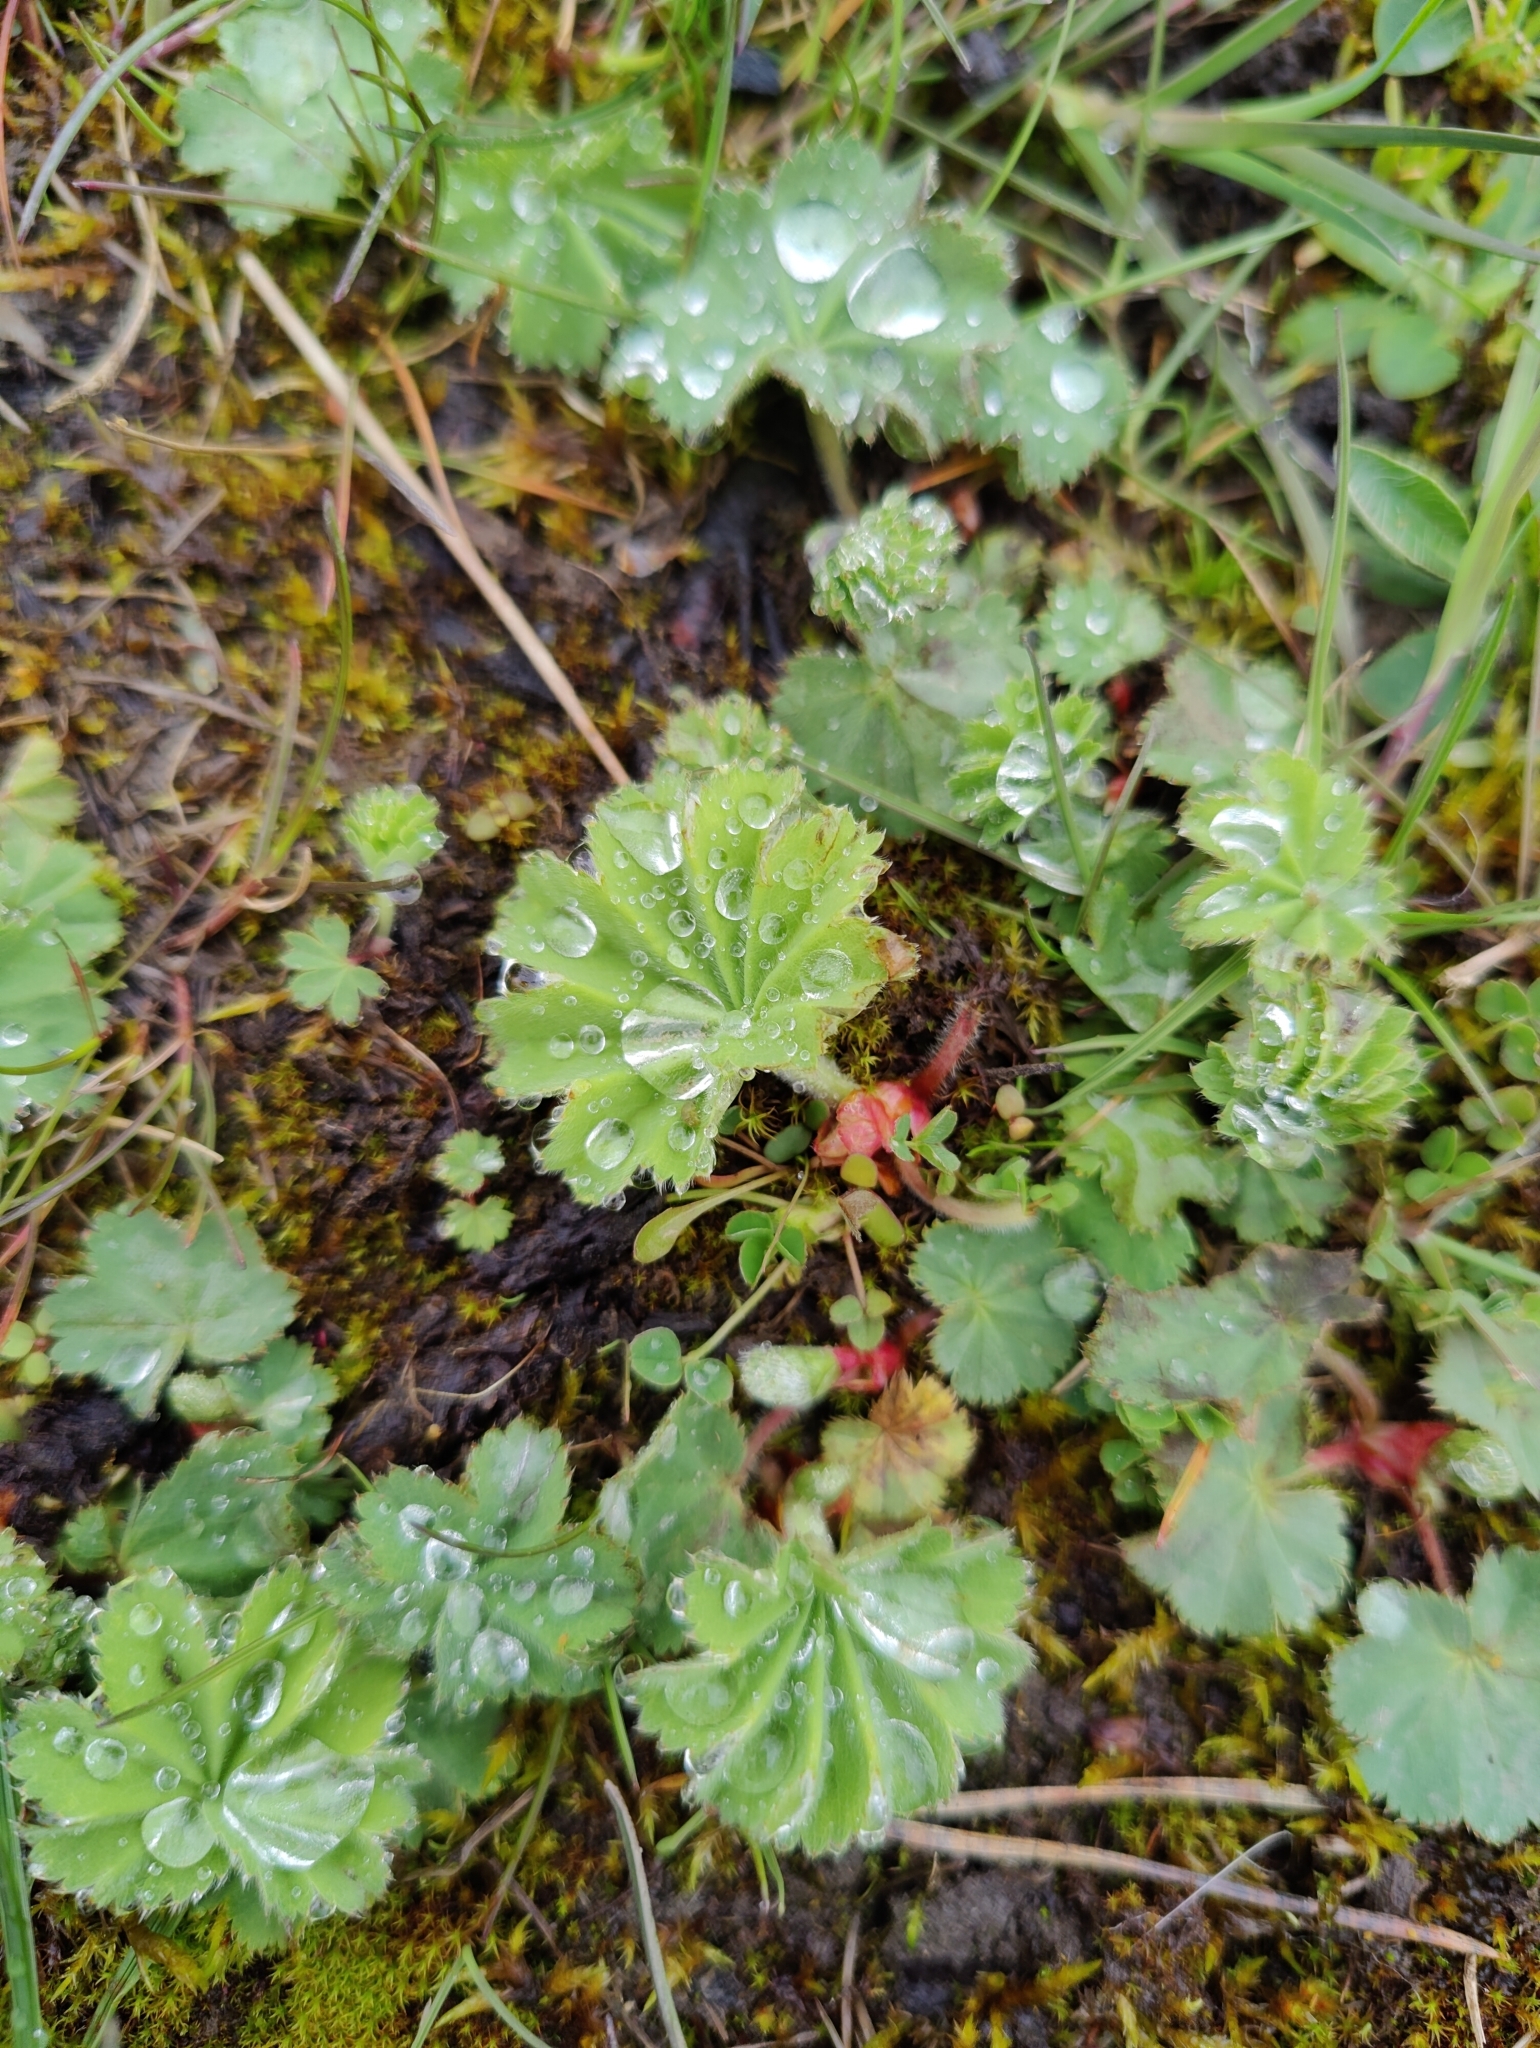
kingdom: Plantae
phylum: Tracheophyta
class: Magnoliopsida
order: Rosales
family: Rosaceae
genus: Alchemilla
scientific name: Alchemilla vulgaris
